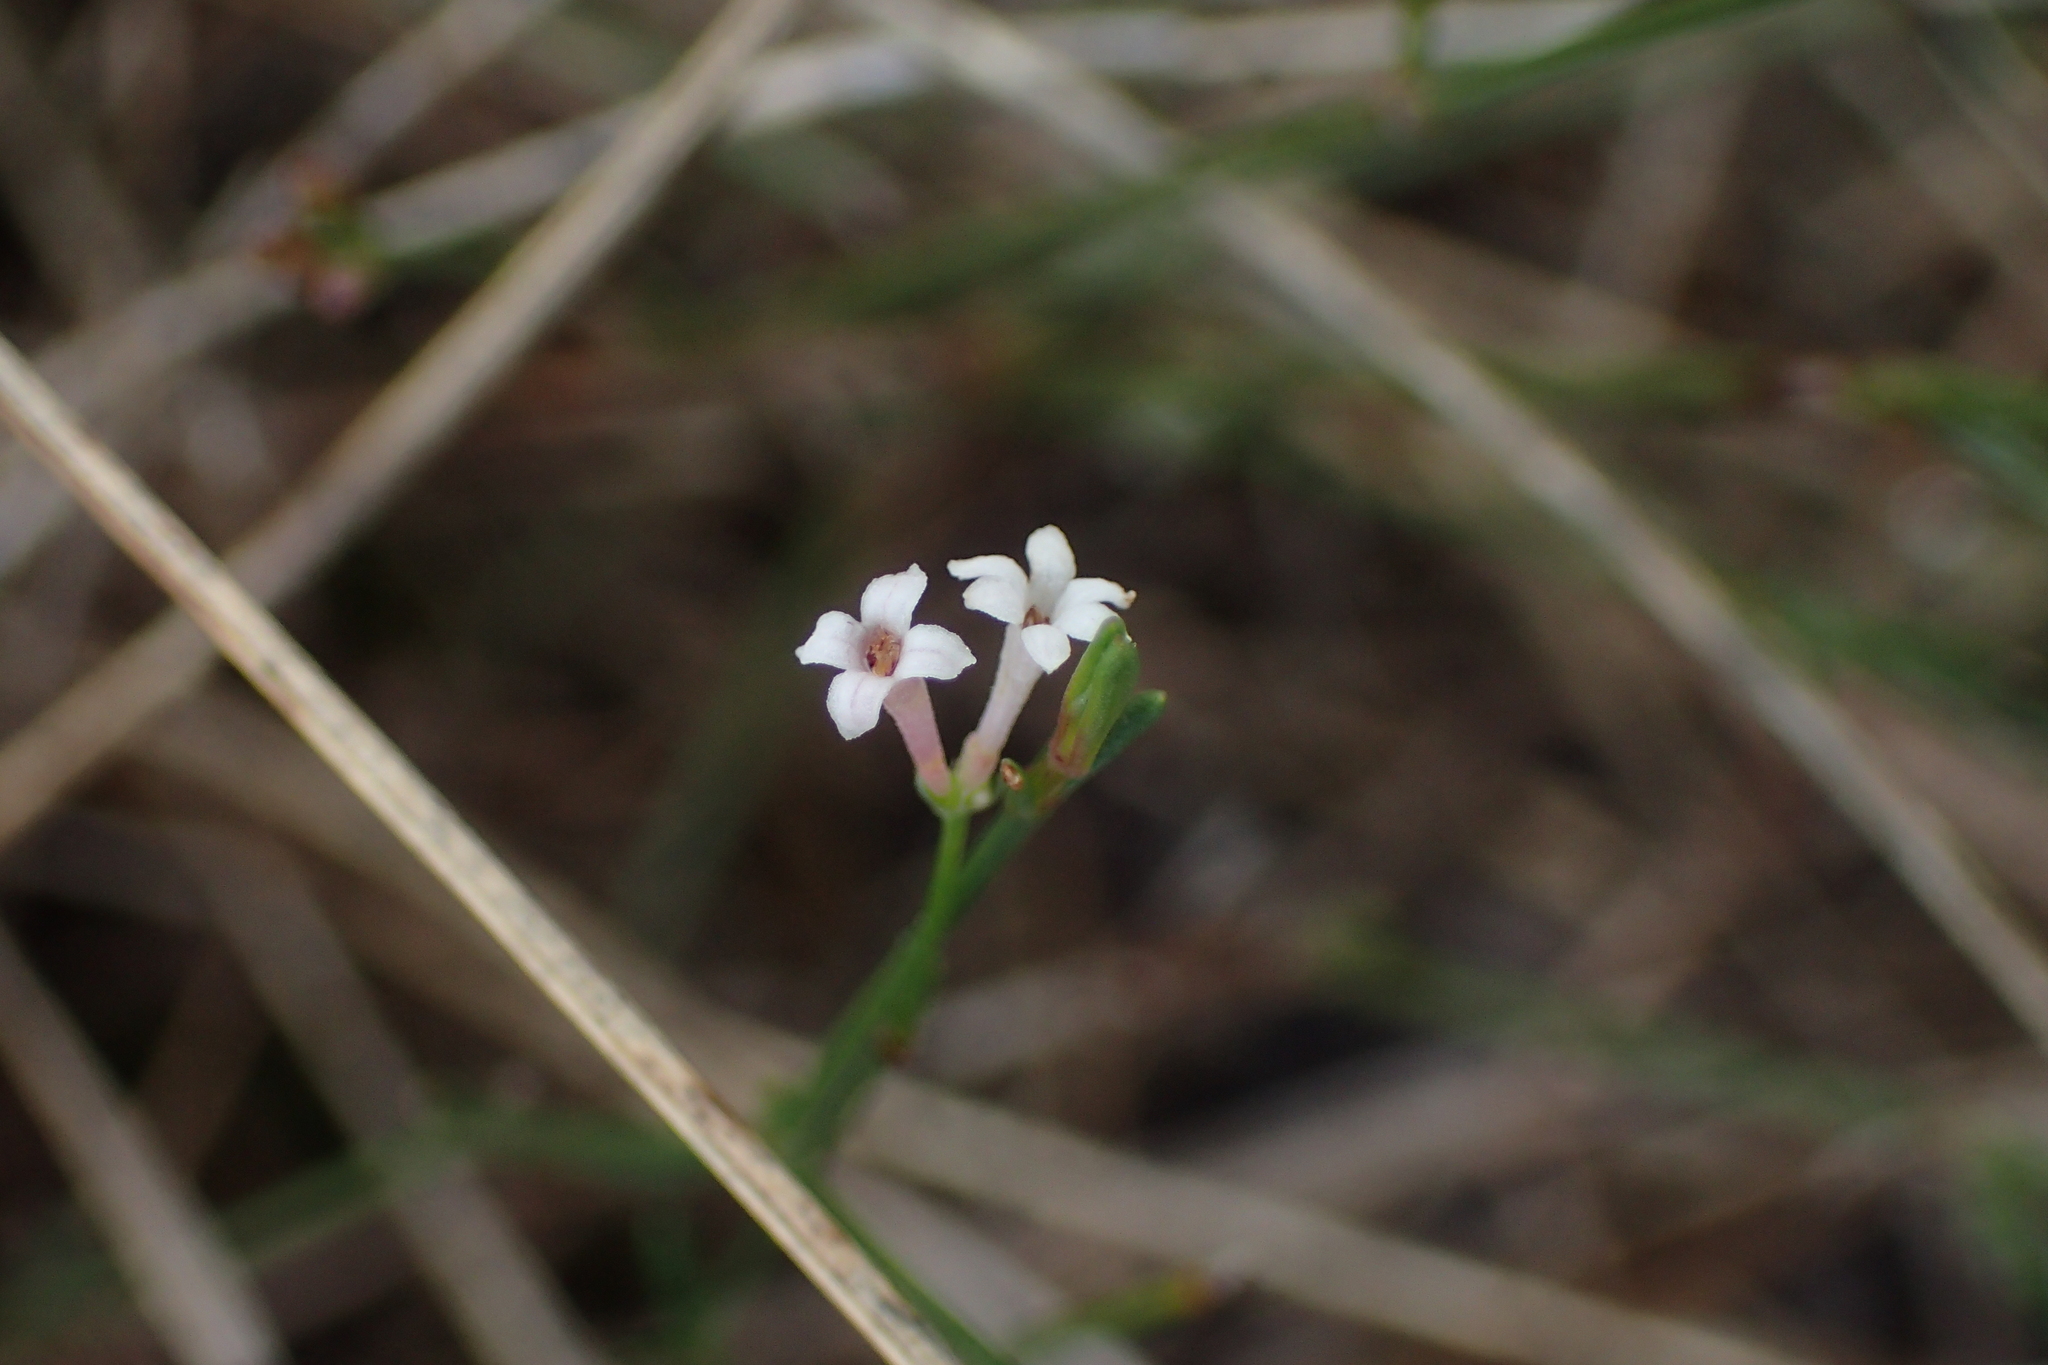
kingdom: Plantae
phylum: Tracheophyta
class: Magnoliopsida
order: Gentianales
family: Rubiaceae
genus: Cynanchica
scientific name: Cynanchica pyrenaica
